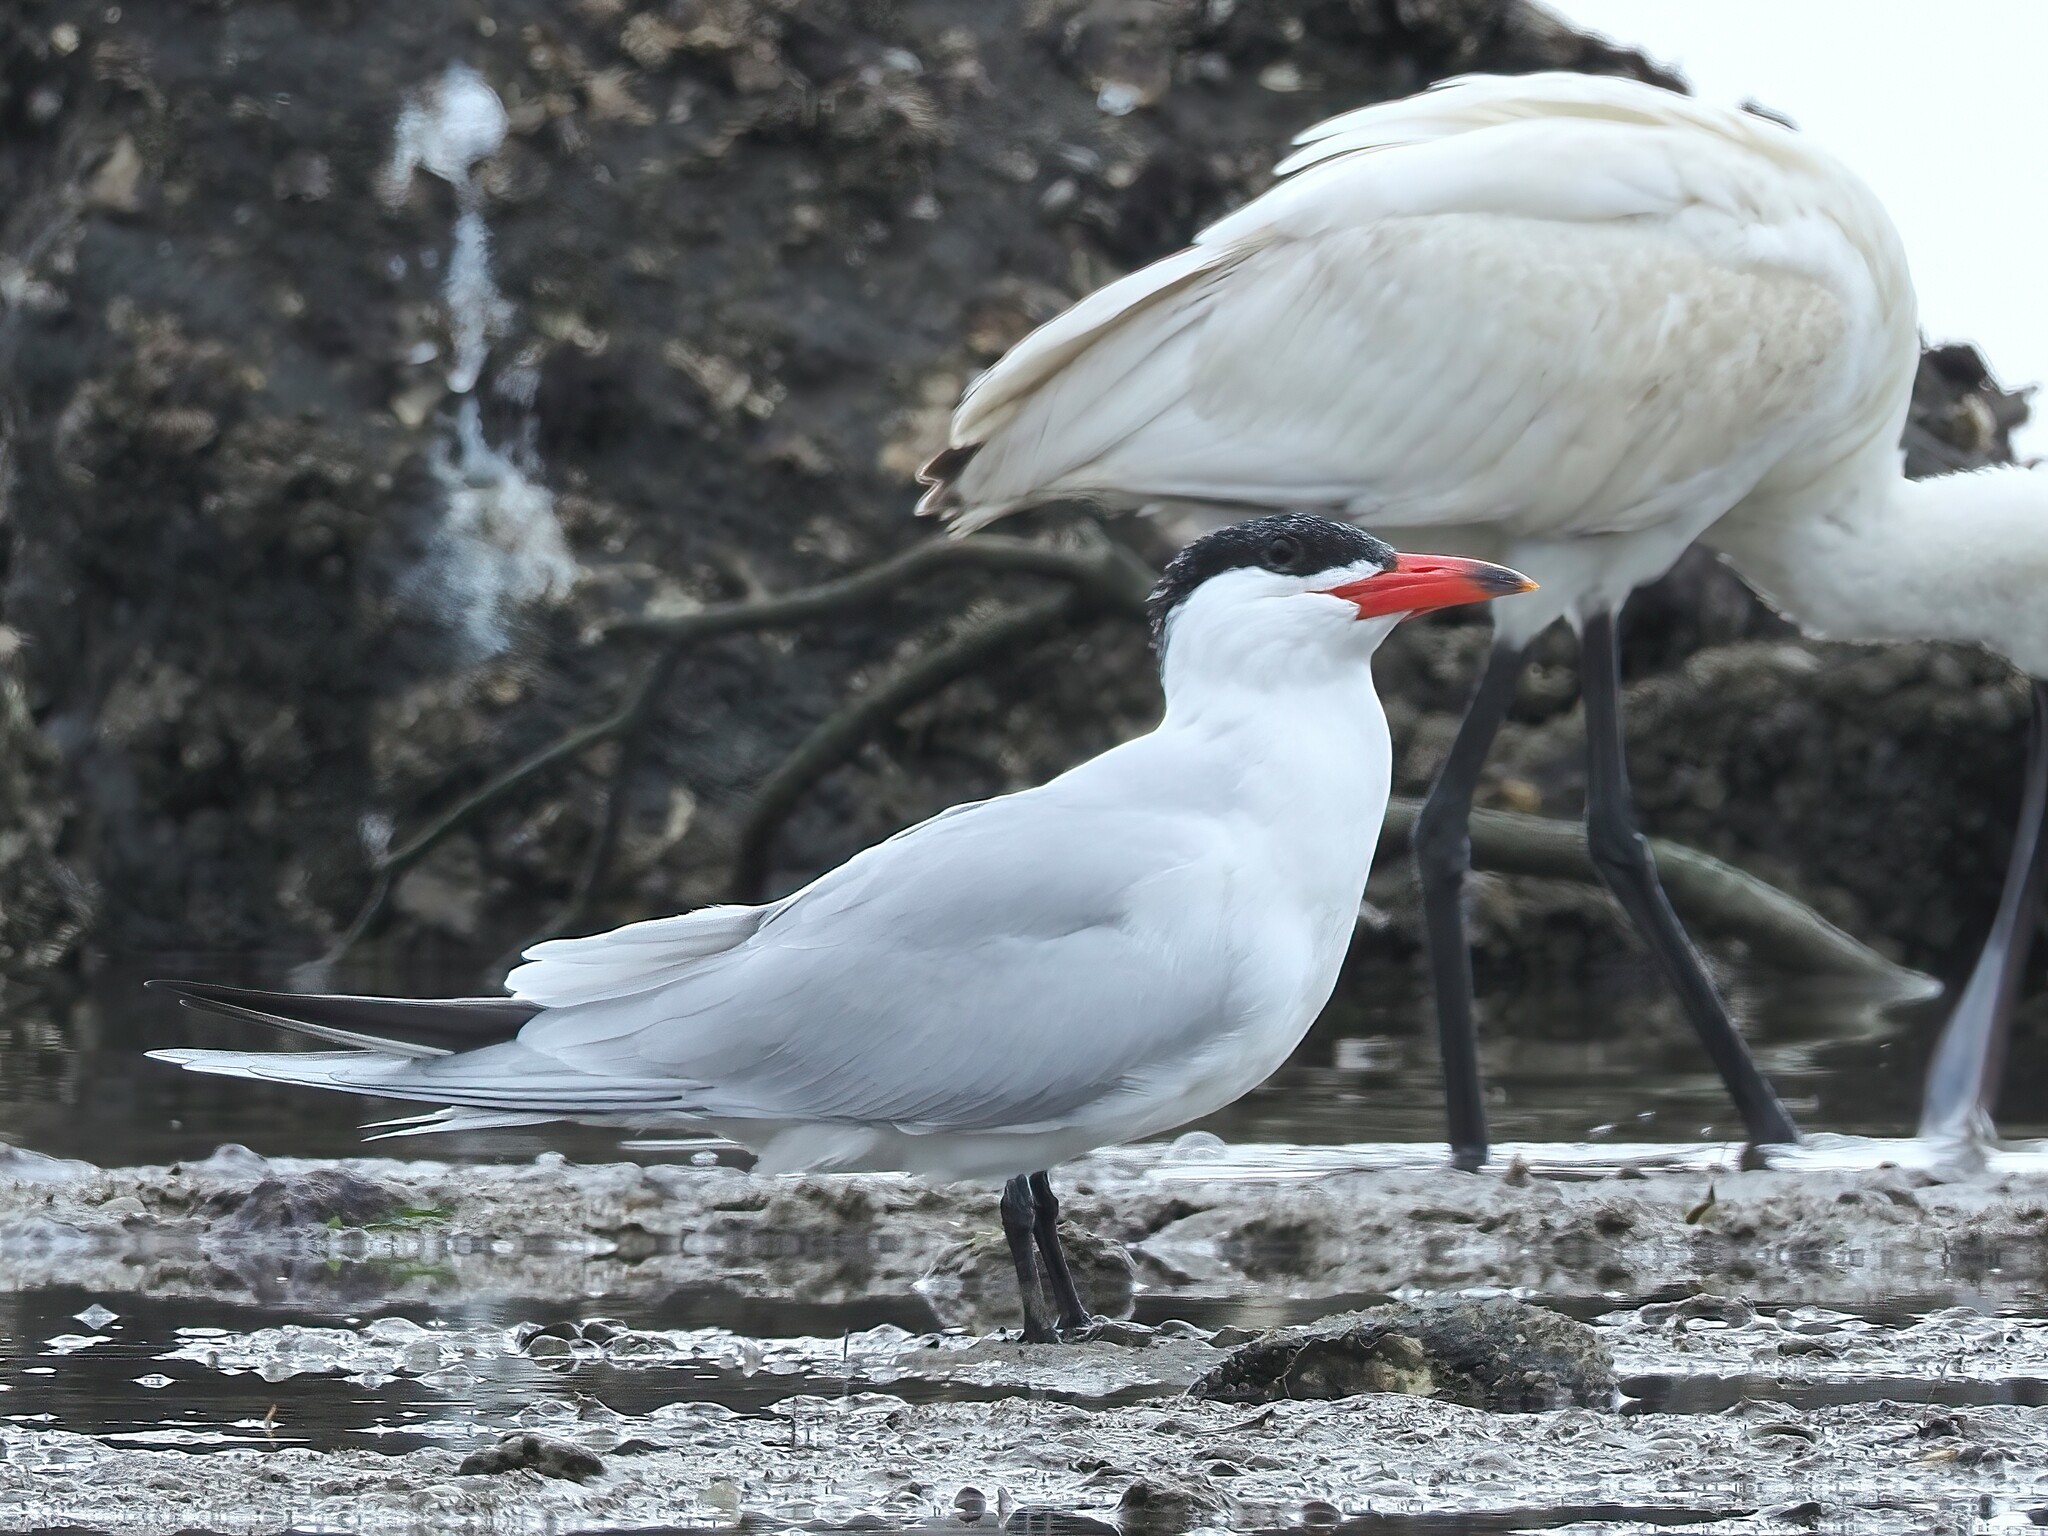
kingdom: Animalia
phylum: Chordata
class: Aves
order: Charadriiformes
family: Laridae
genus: Hydroprogne
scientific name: Hydroprogne caspia
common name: Caspian tern
